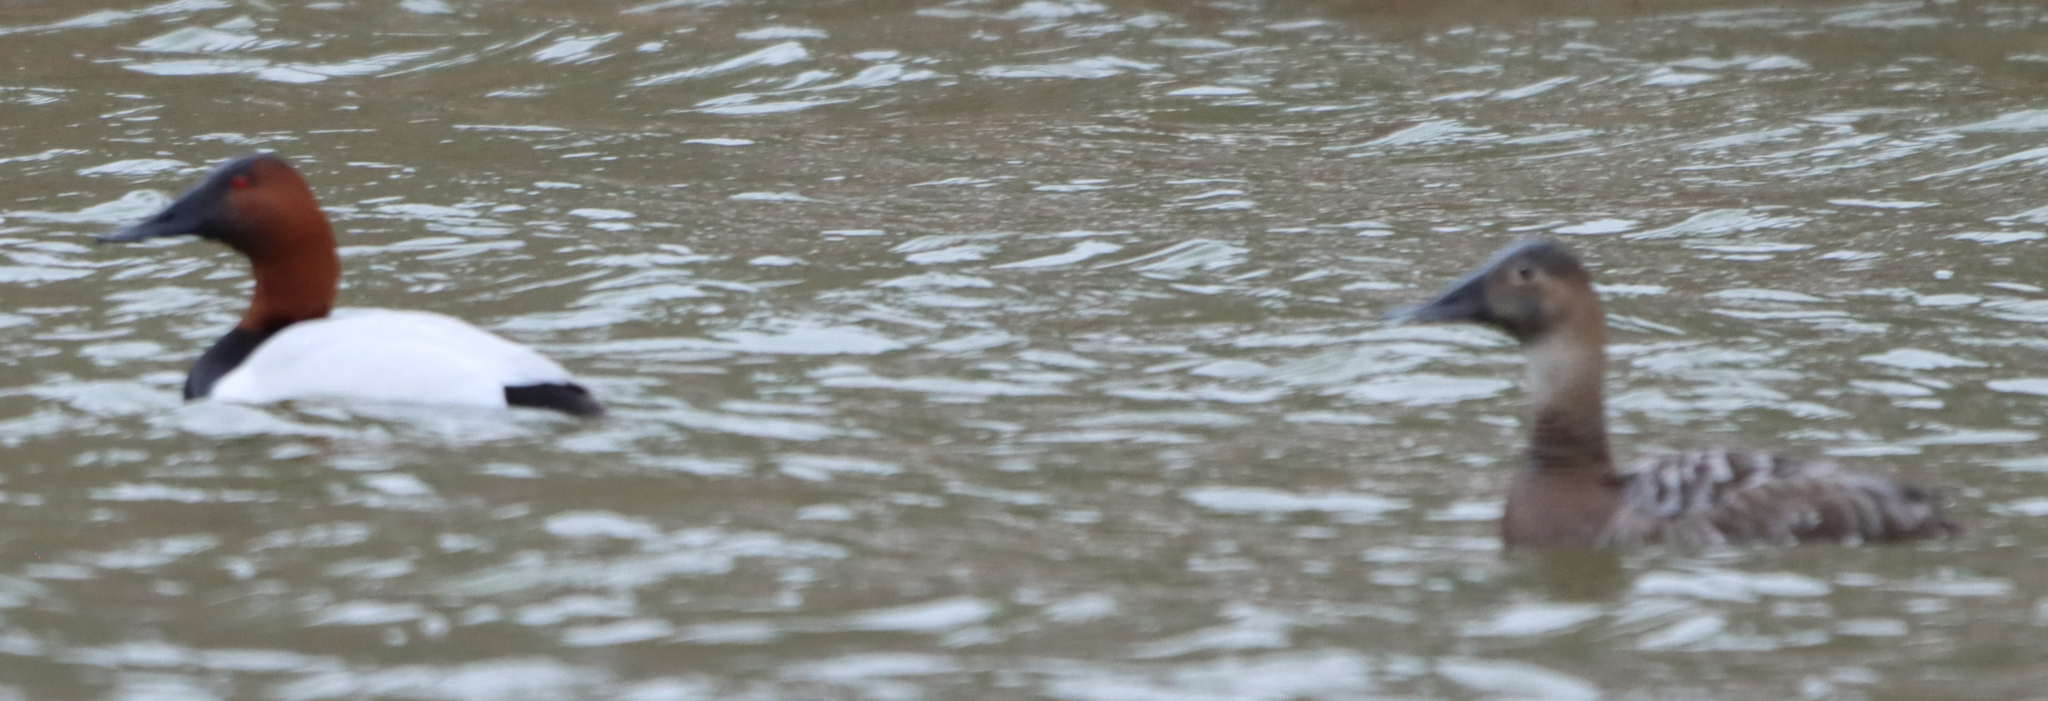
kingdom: Animalia
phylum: Chordata
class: Aves
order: Anseriformes
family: Anatidae
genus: Aythya
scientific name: Aythya valisineria
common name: Canvasback
